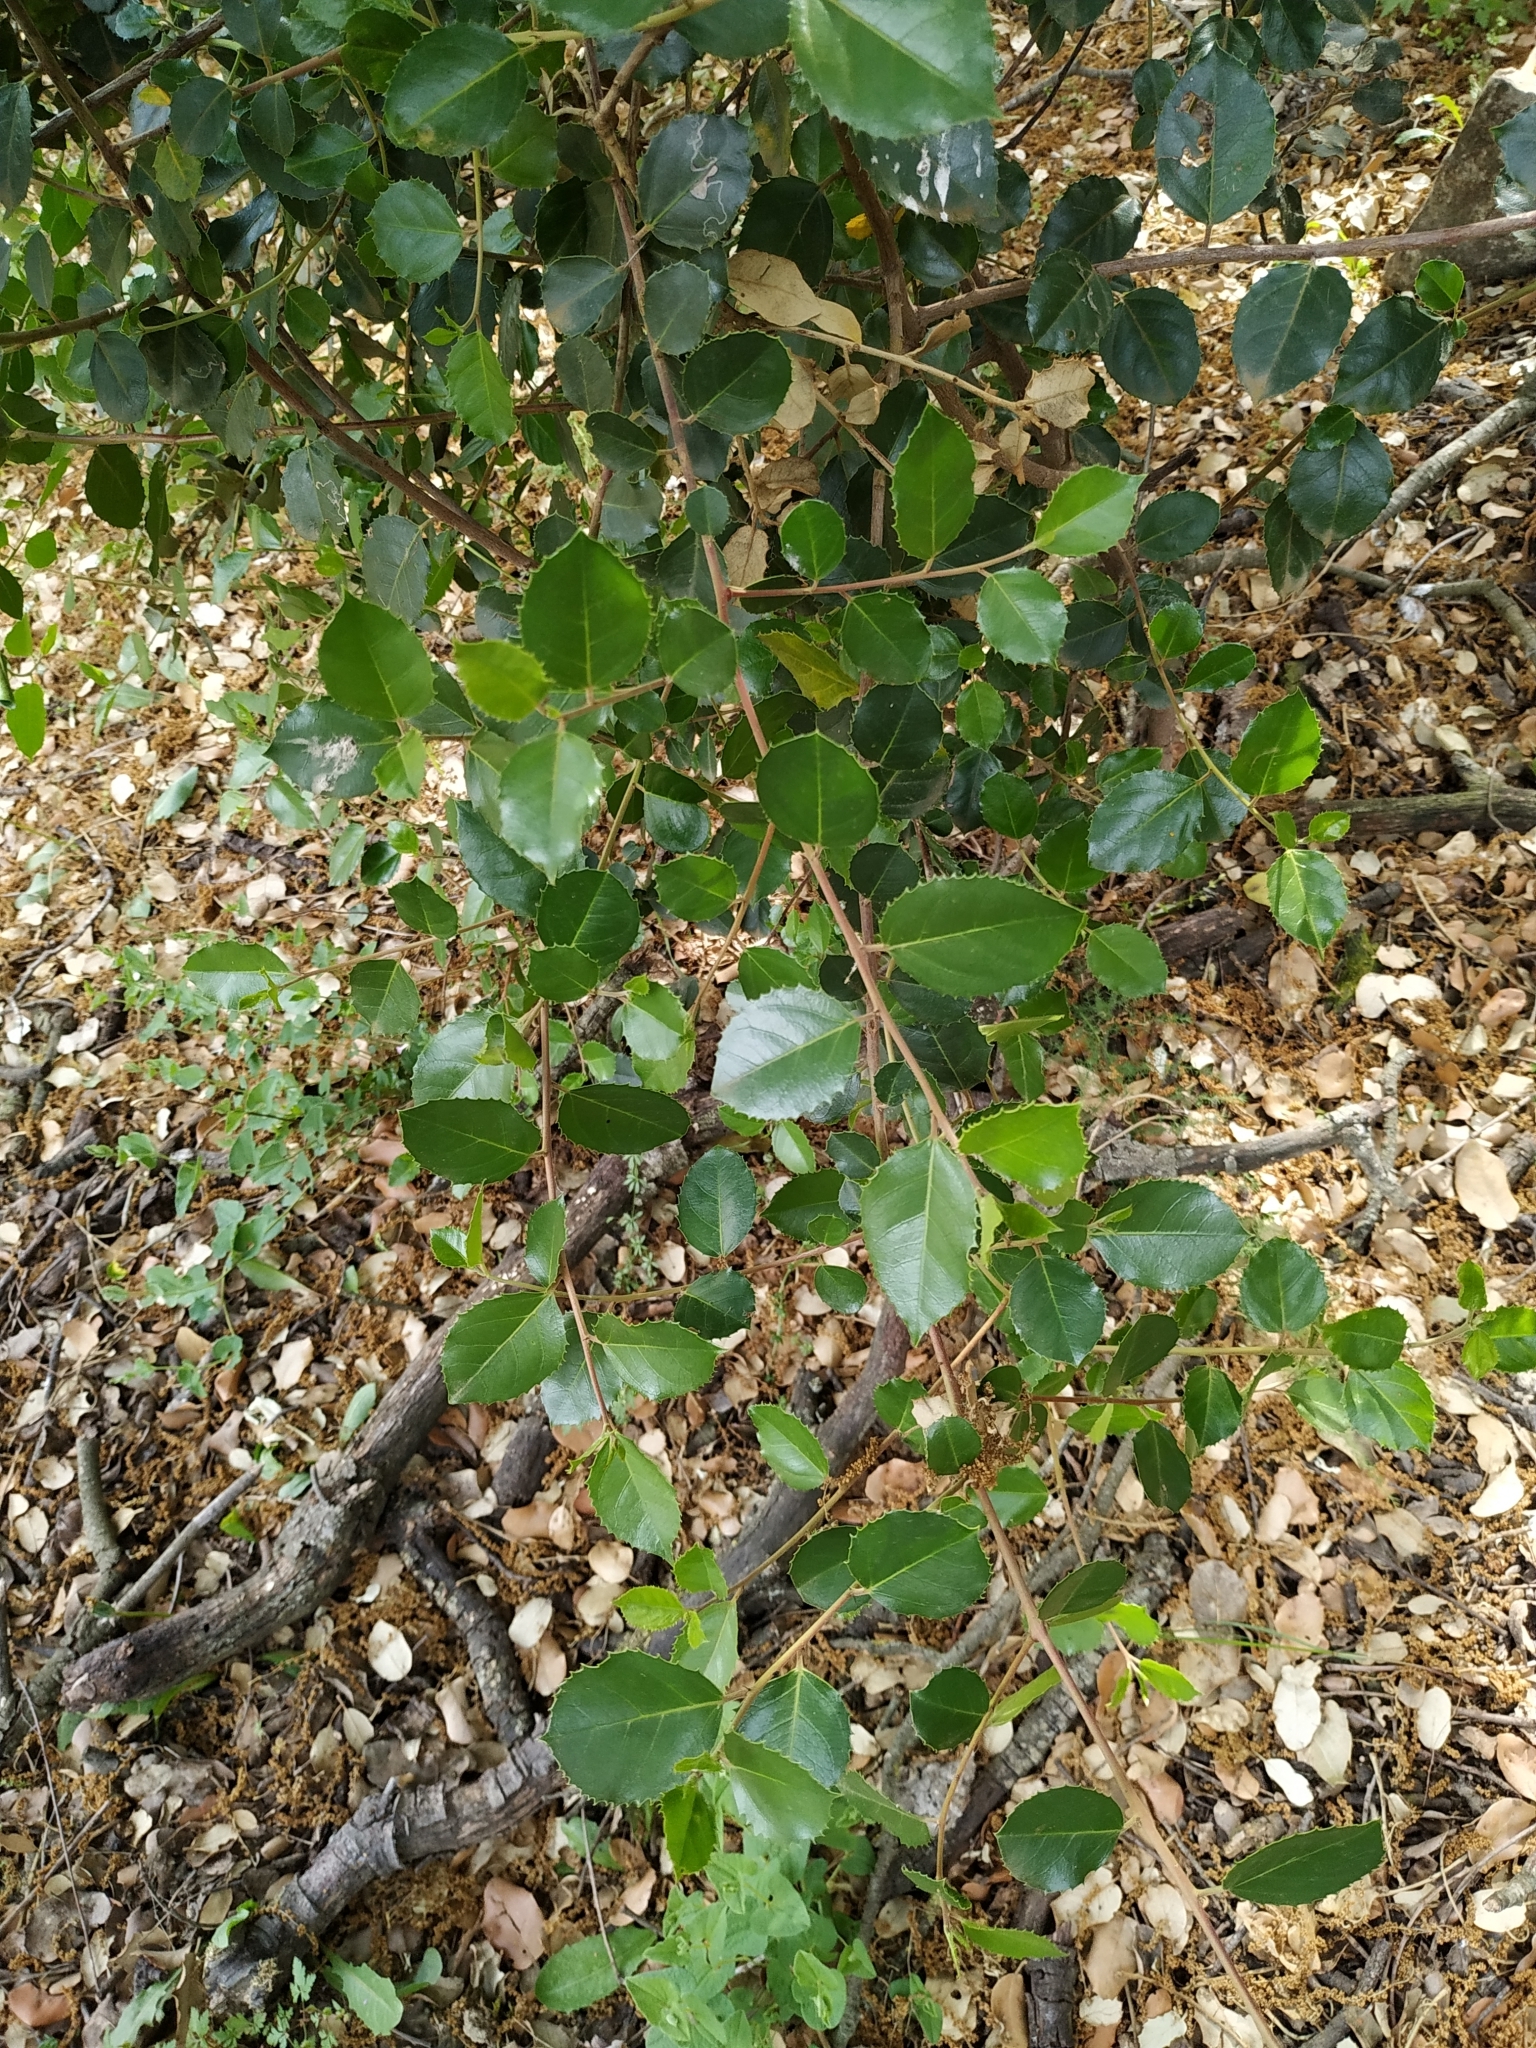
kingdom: Plantae
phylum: Tracheophyta
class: Magnoliopsida
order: Rosales
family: Rhamnaceae
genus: Rhamnus
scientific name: Rhamnus alaternus
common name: Mediterranean buckthorn
